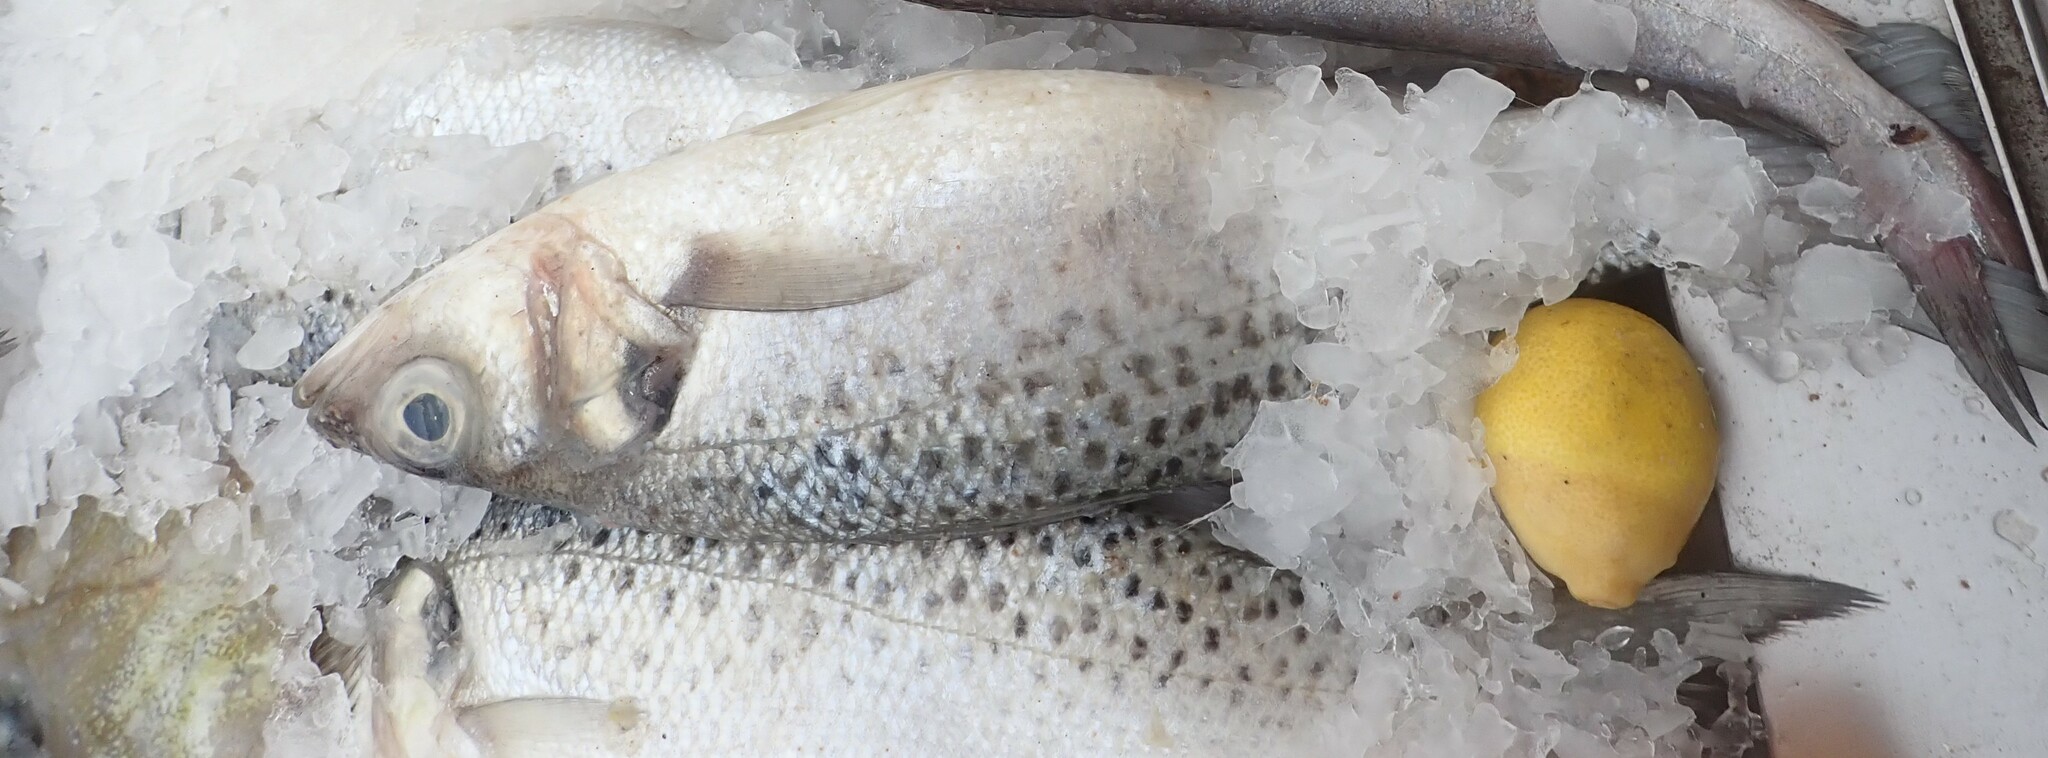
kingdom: Animalia
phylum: Chordata
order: Perciformes
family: Moronidae
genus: Dicentrarchus
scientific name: Dicentrarchus punctatus
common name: Black-spotted bass
